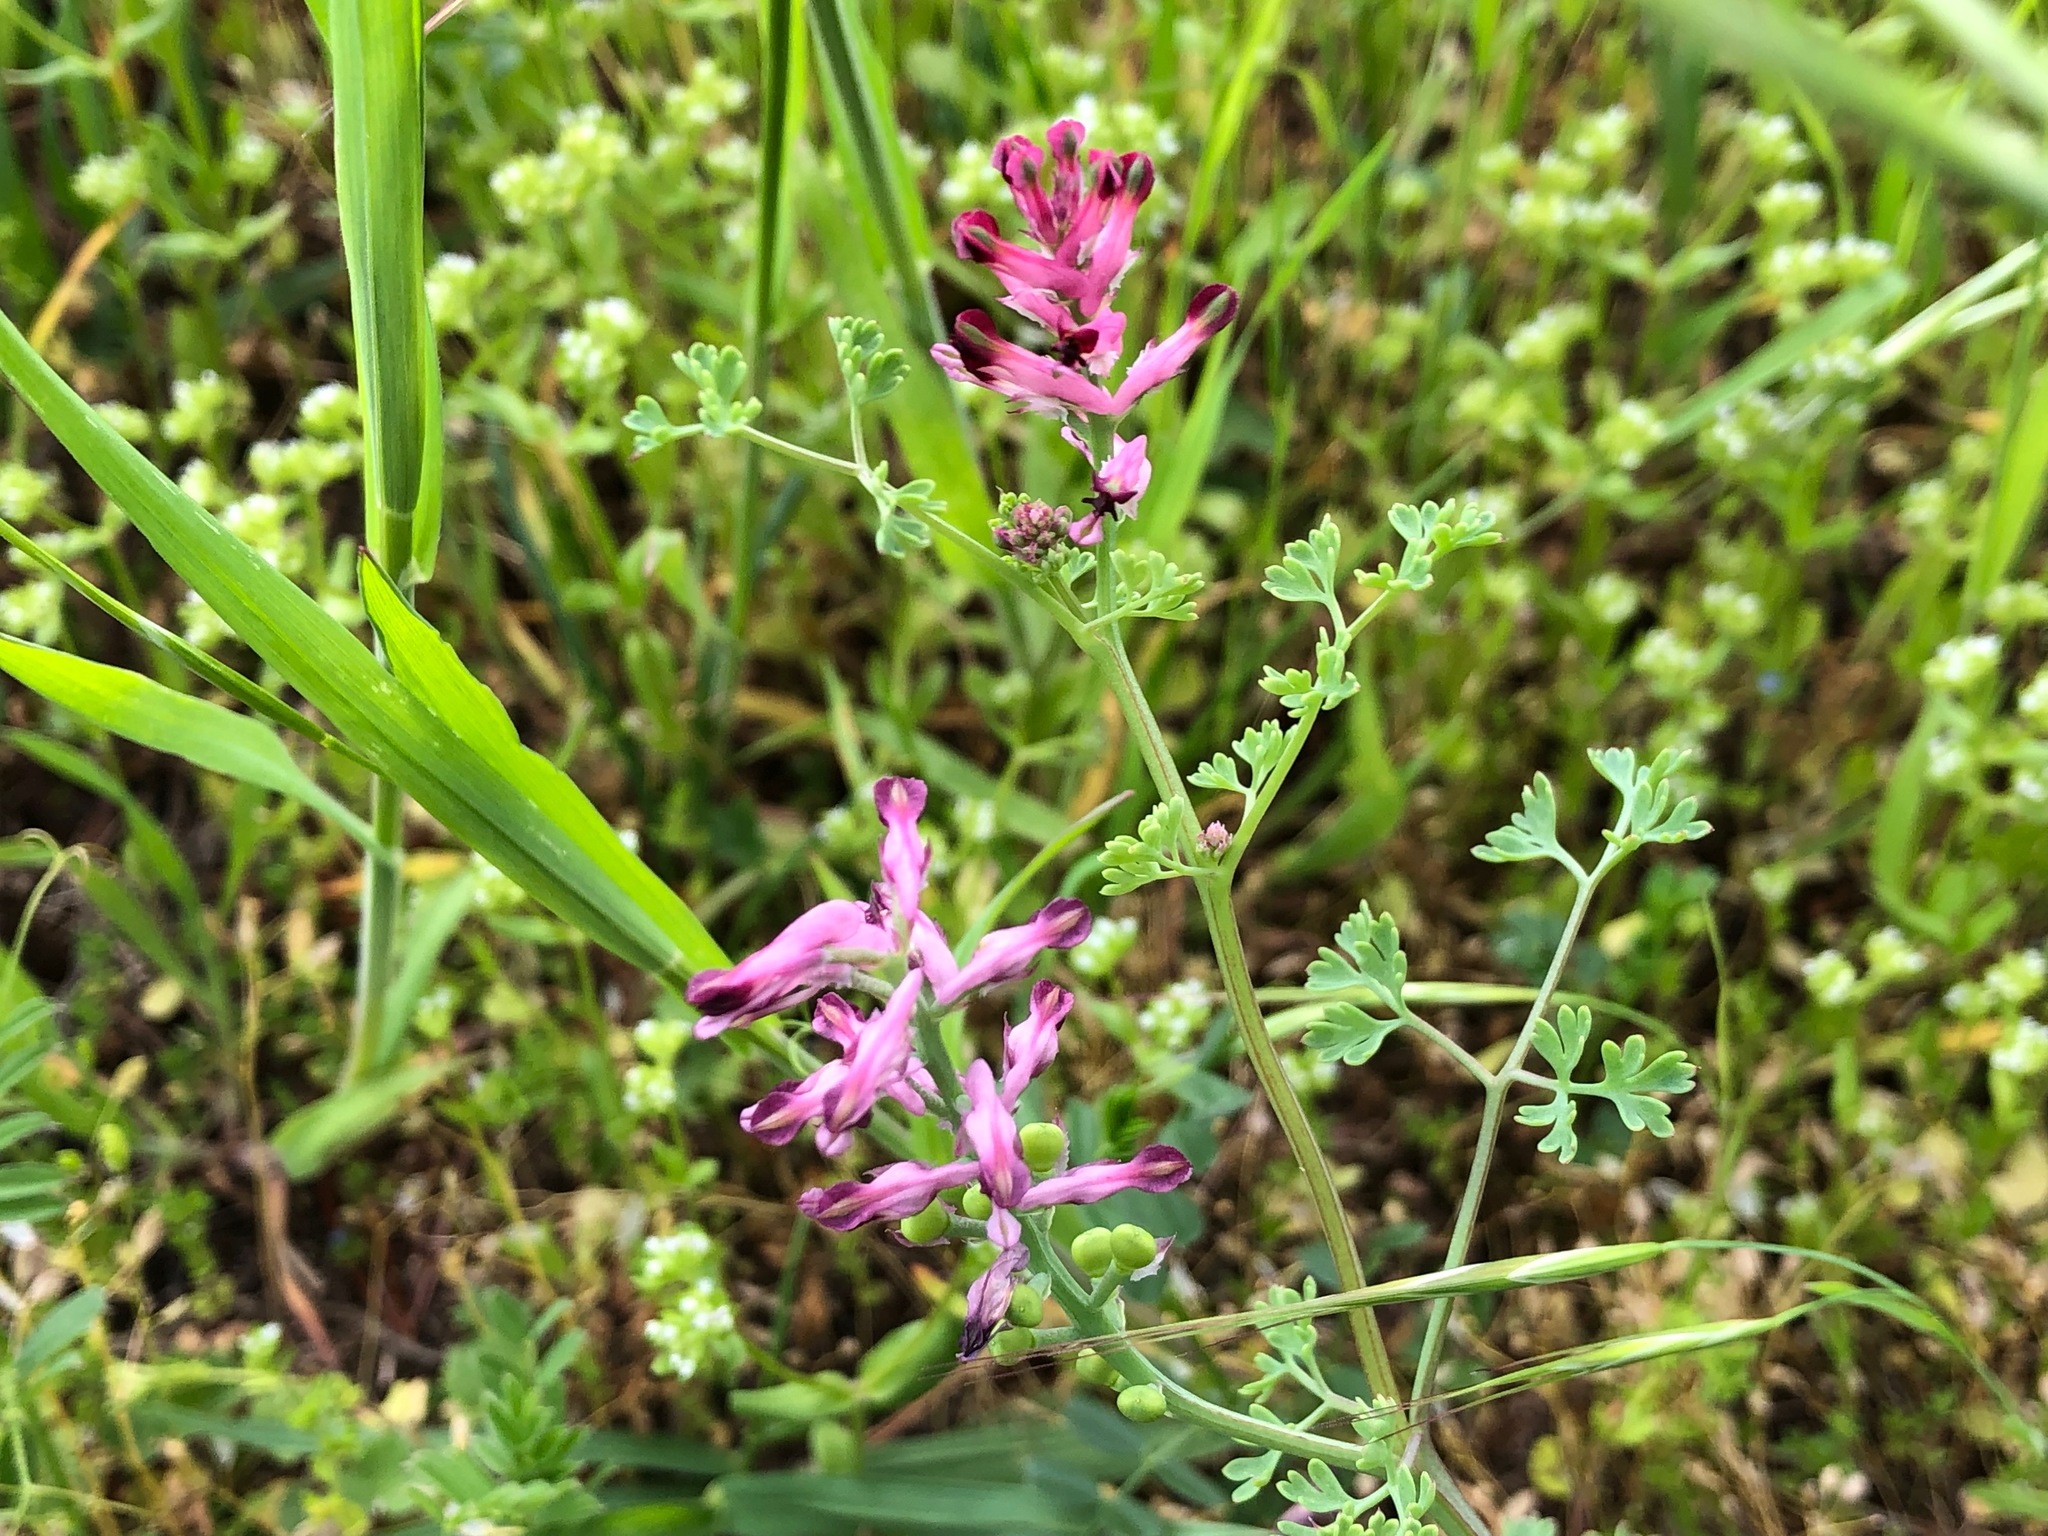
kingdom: Plantae
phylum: Tracheophyta
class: Magnoliopsida
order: Ranunculales
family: Papaveraceae
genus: Fumaria
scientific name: Fumaria officinalis
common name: Common fumitory
